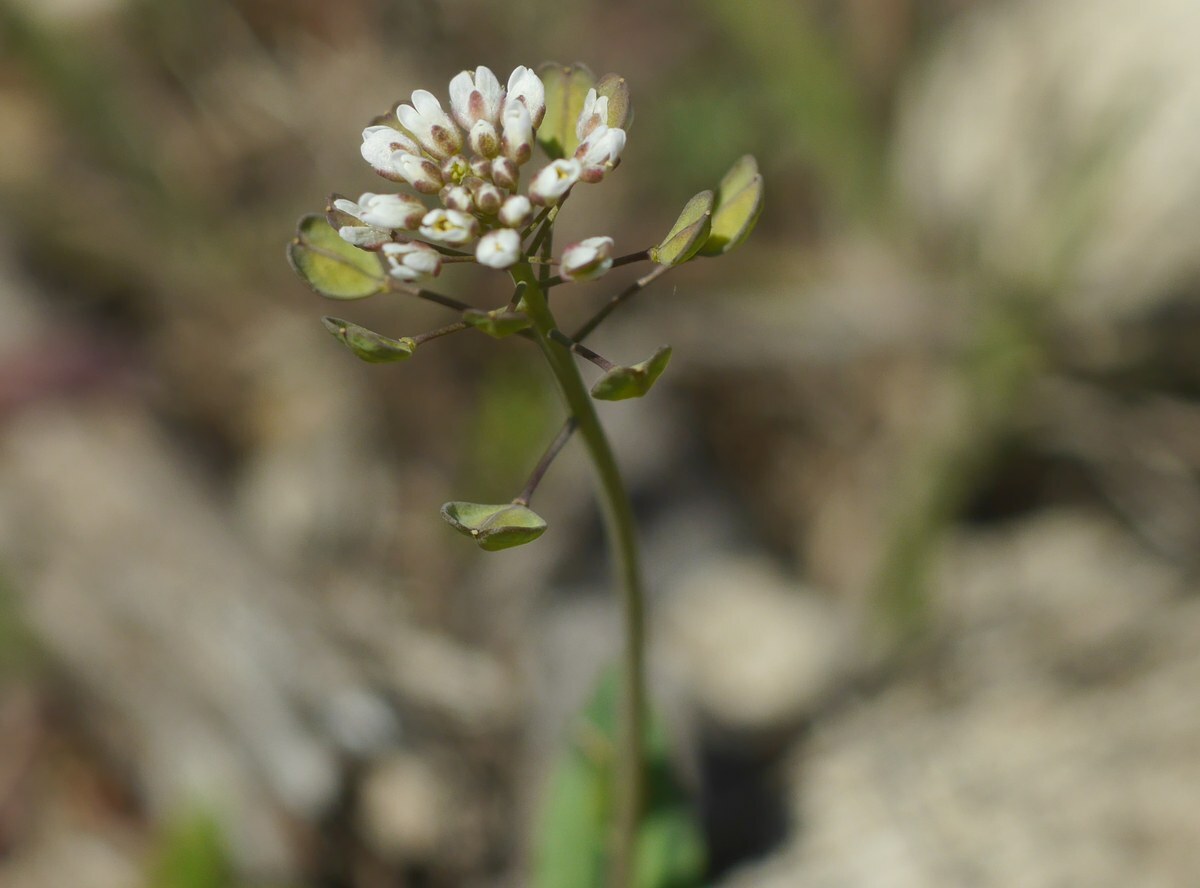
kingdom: Plantae
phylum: Tracheophyta
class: Magnoliopsida
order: Brassicales
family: Brassicaceae
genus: Noccaea
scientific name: Noccaea perfoliata
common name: Perfoliate pennycress
